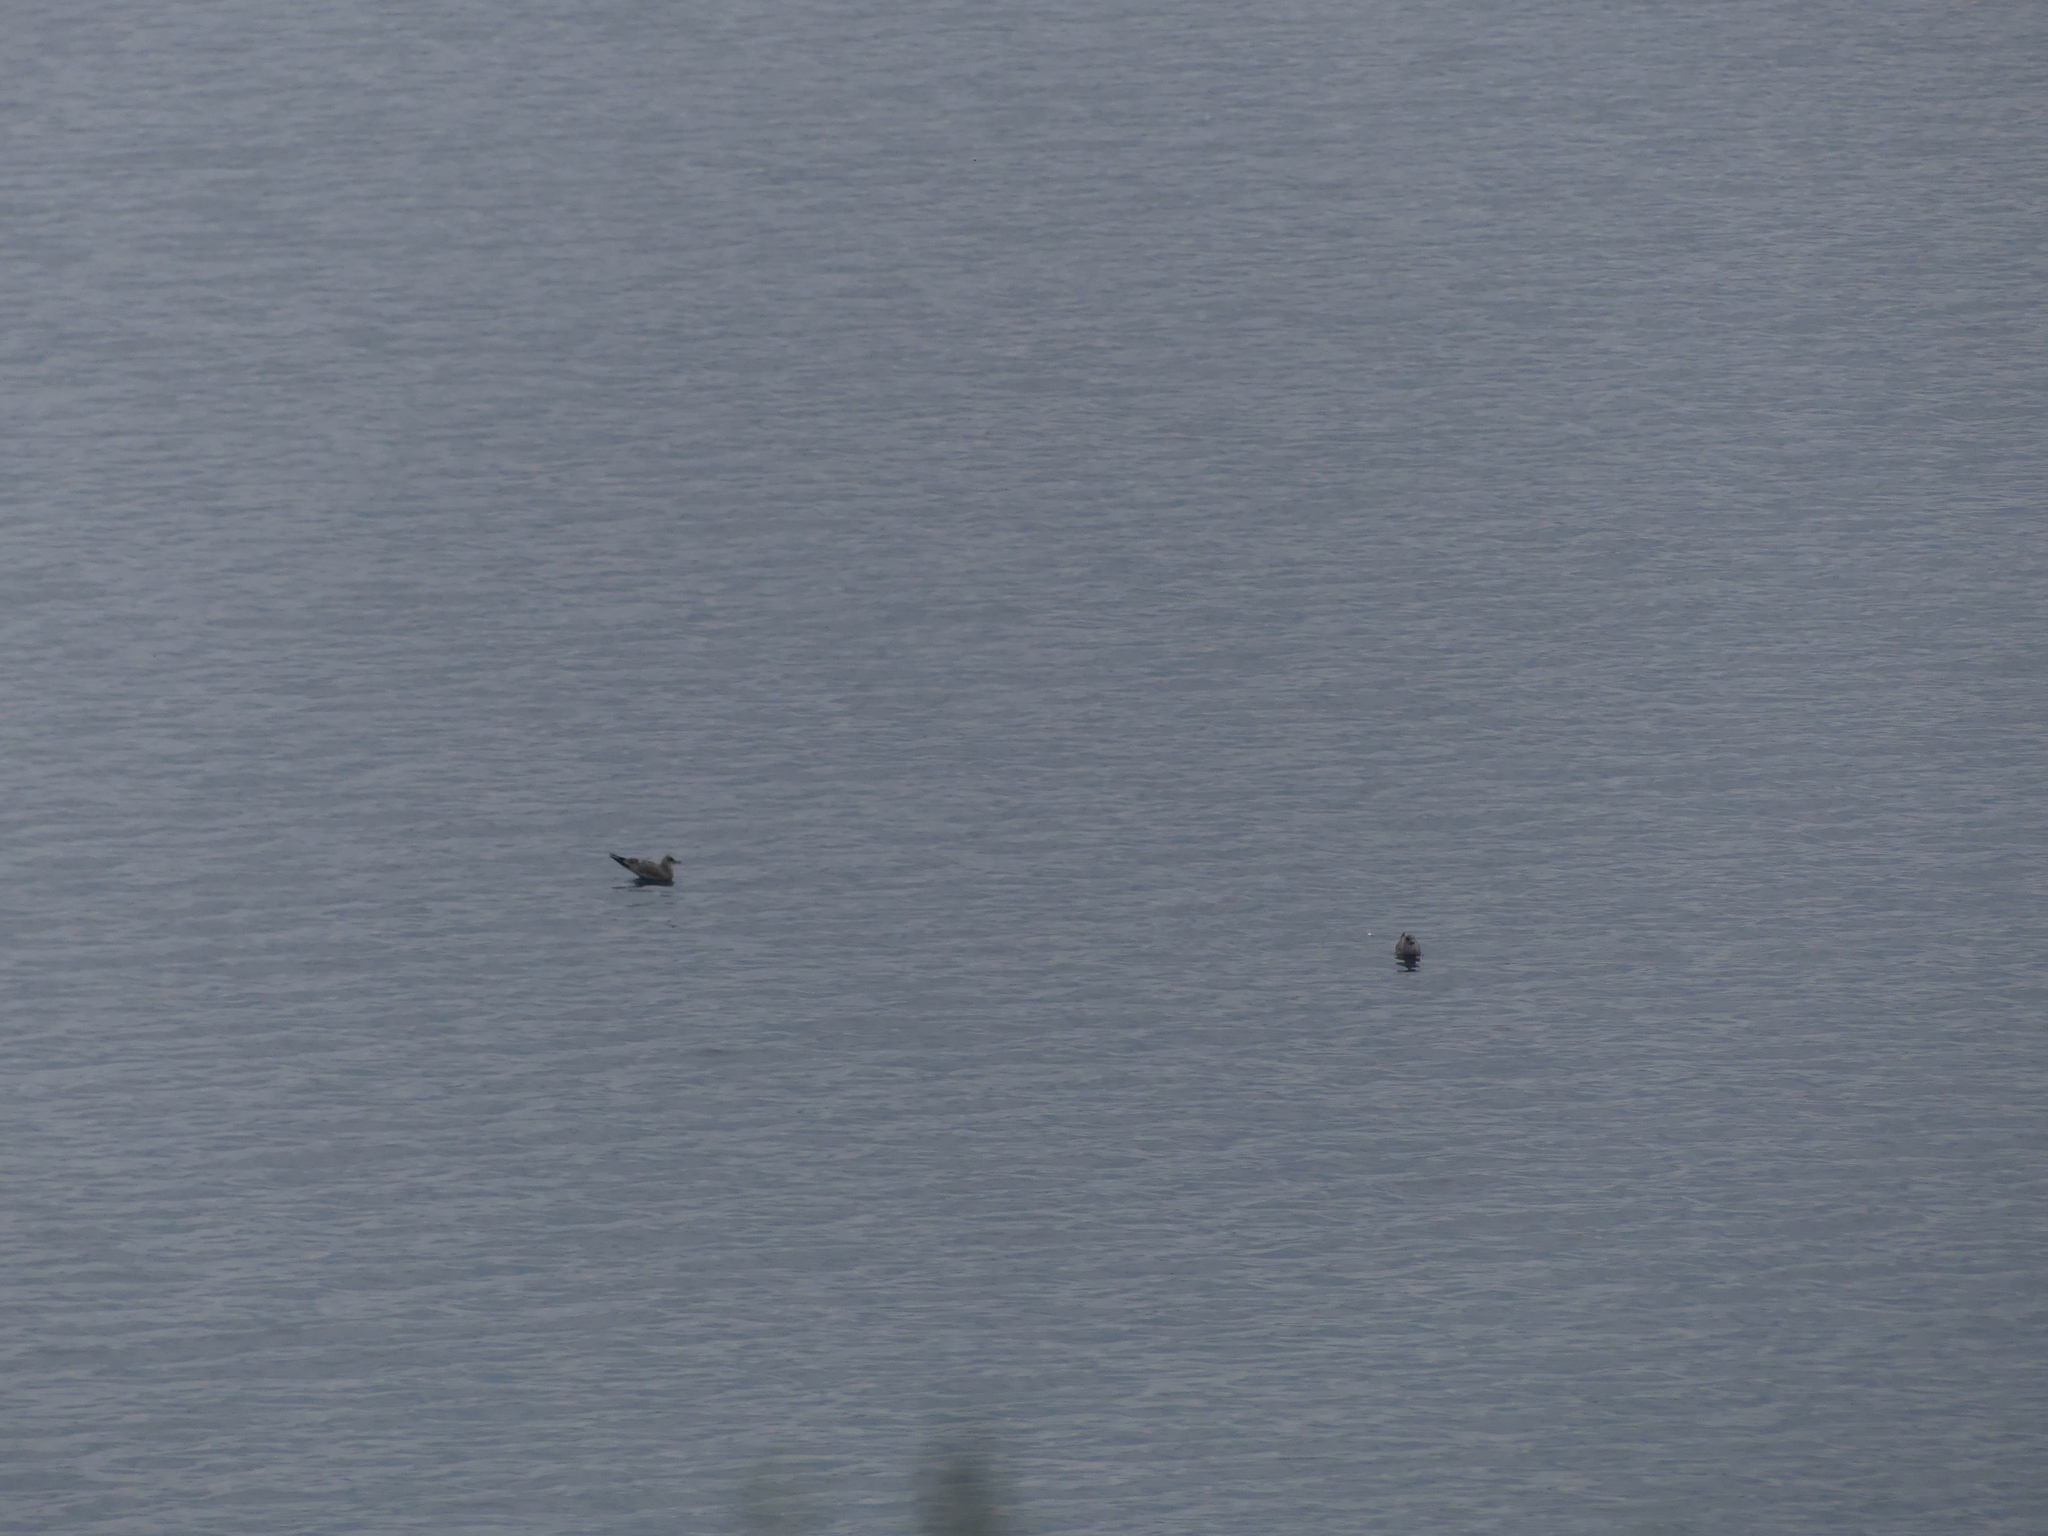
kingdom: Animalia
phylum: Chordata
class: Aves
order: Charadriiformes
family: Laridae
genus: Larus
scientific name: Larus brachyrhynchus
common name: Short-billed gull
